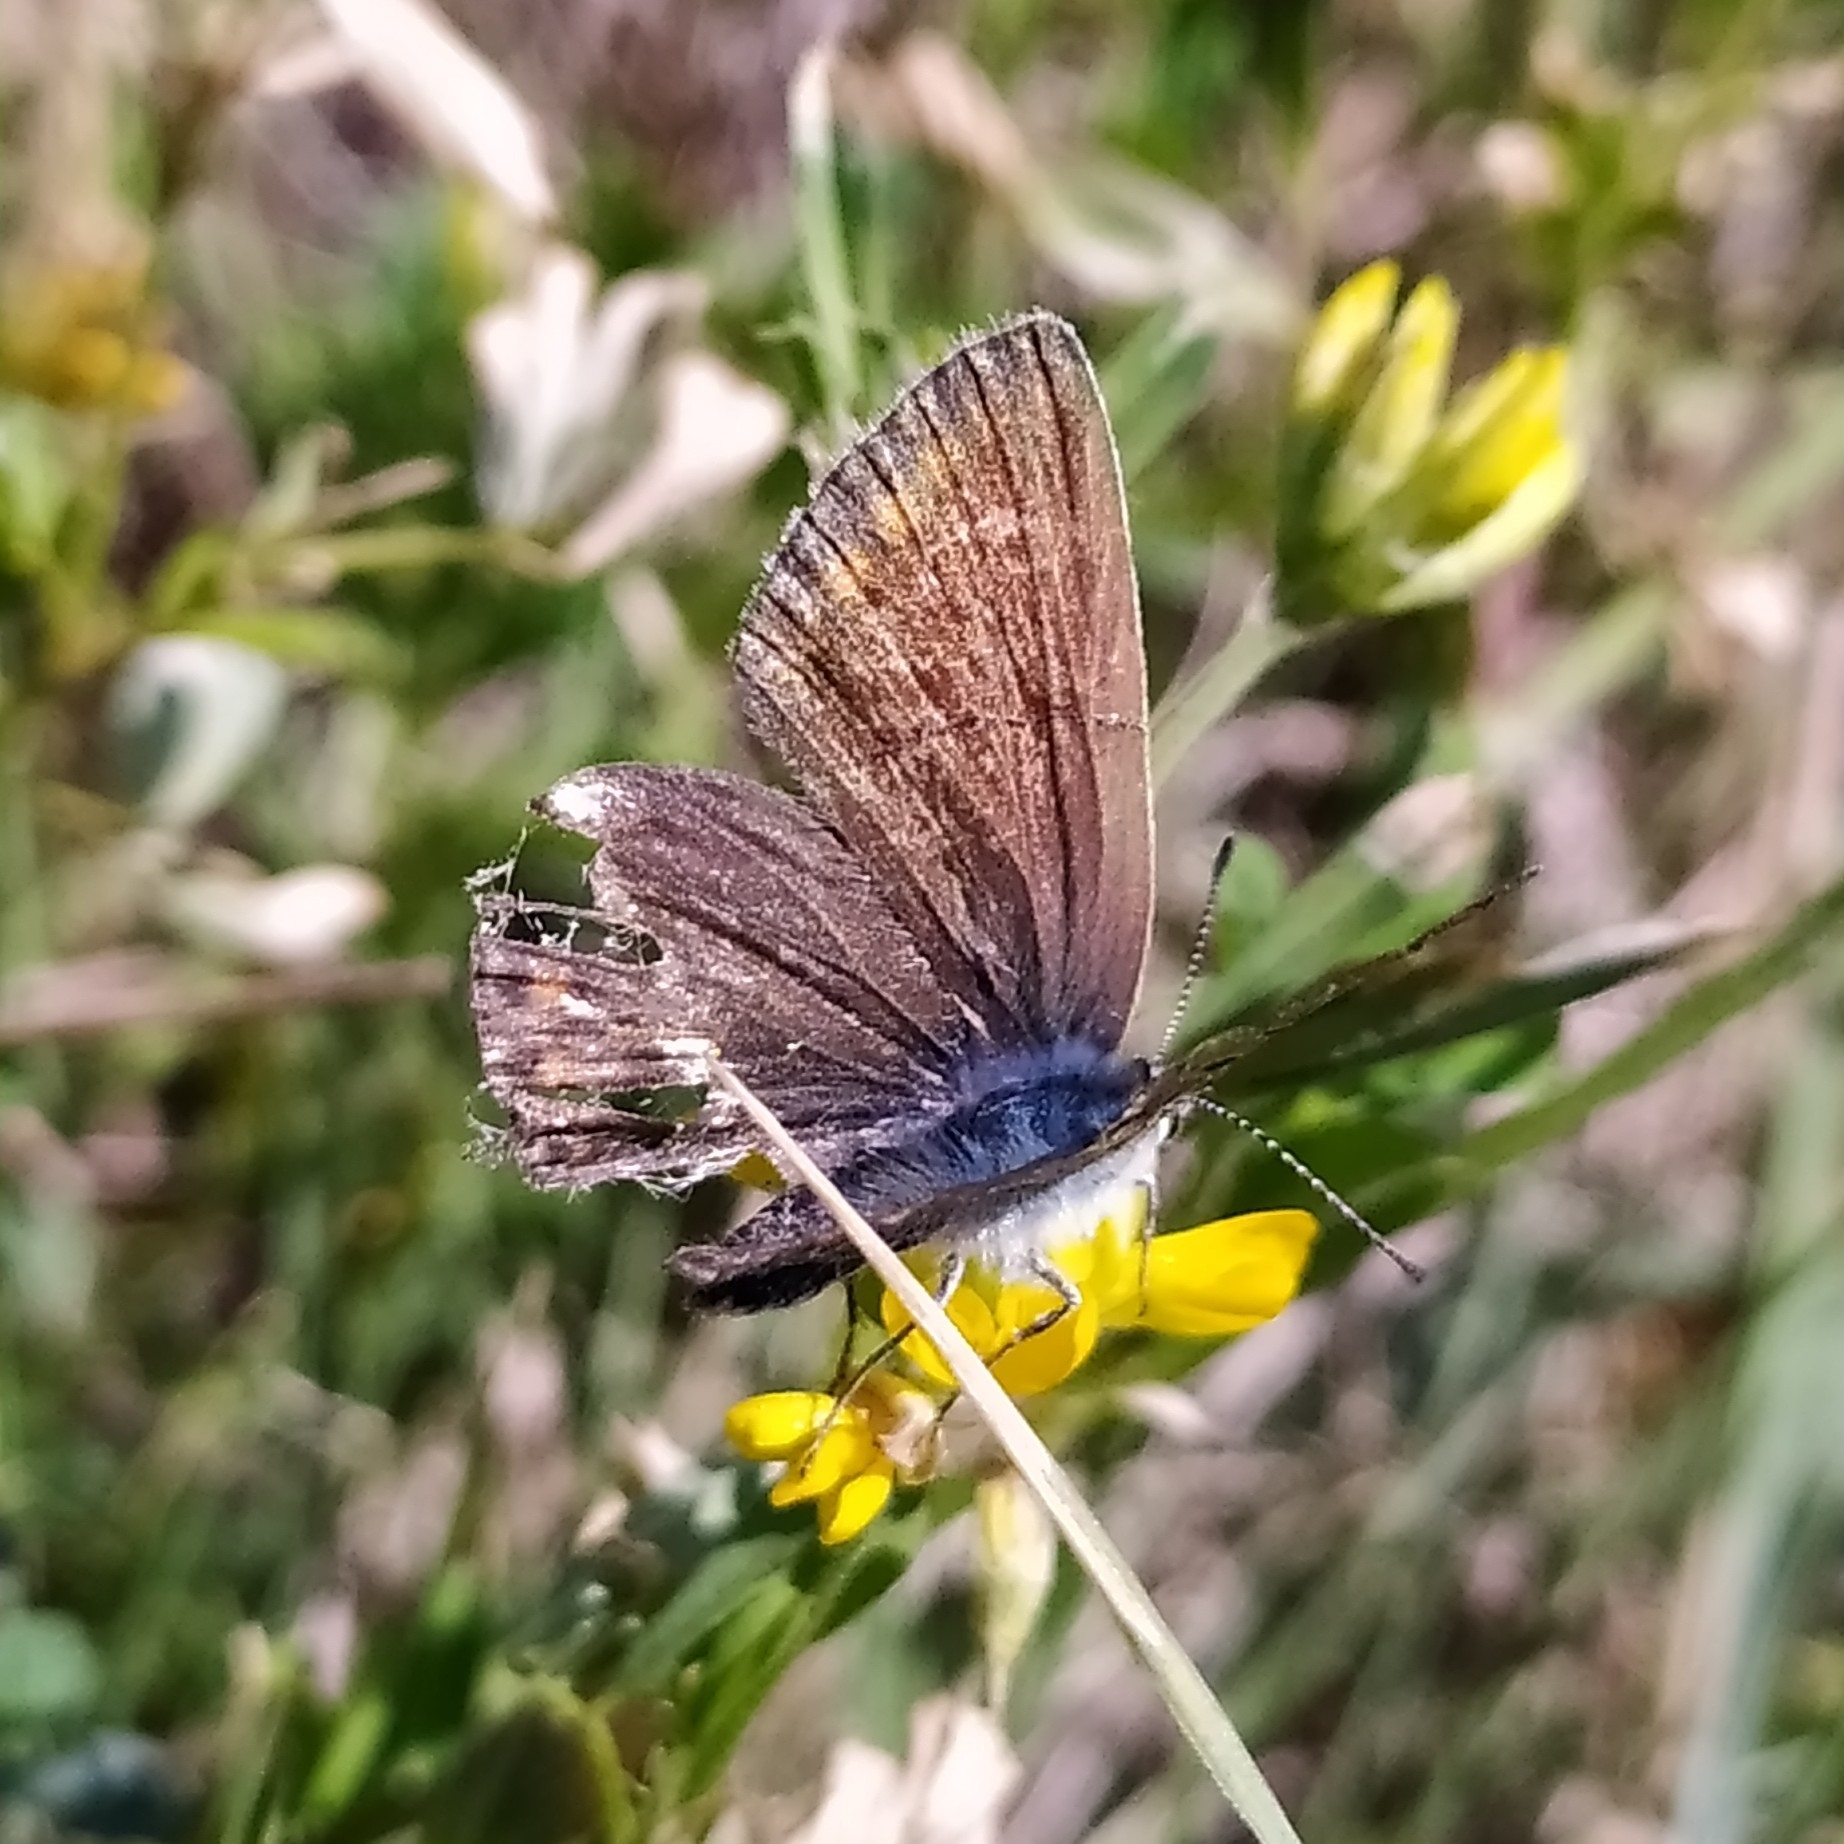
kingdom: Animalia
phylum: Arthropoda
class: Insecta
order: Lepidoptera
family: Lycaenidae
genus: Polyommatus
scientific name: Polyommatus icarus
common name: Common blue
